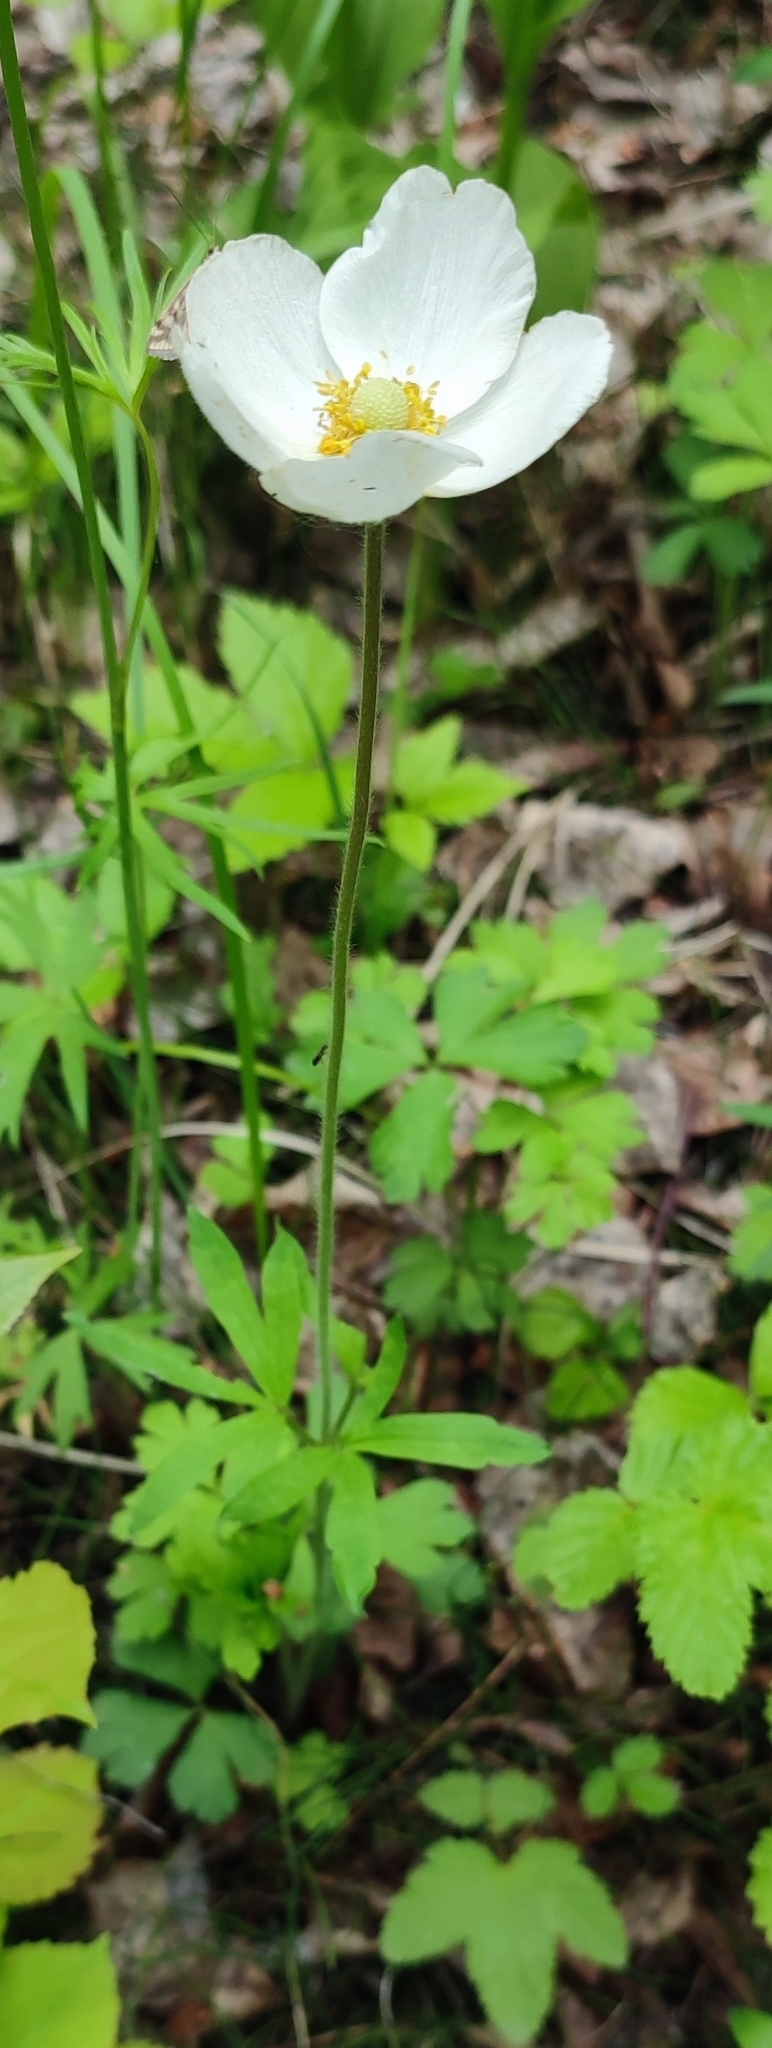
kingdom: Plantae
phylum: Tracheophyta
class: Magnoliopsida
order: Ranunculales
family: Ranunculaceae
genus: Anemone
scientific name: Anemone sylvestris
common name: Snowdrop anemone
